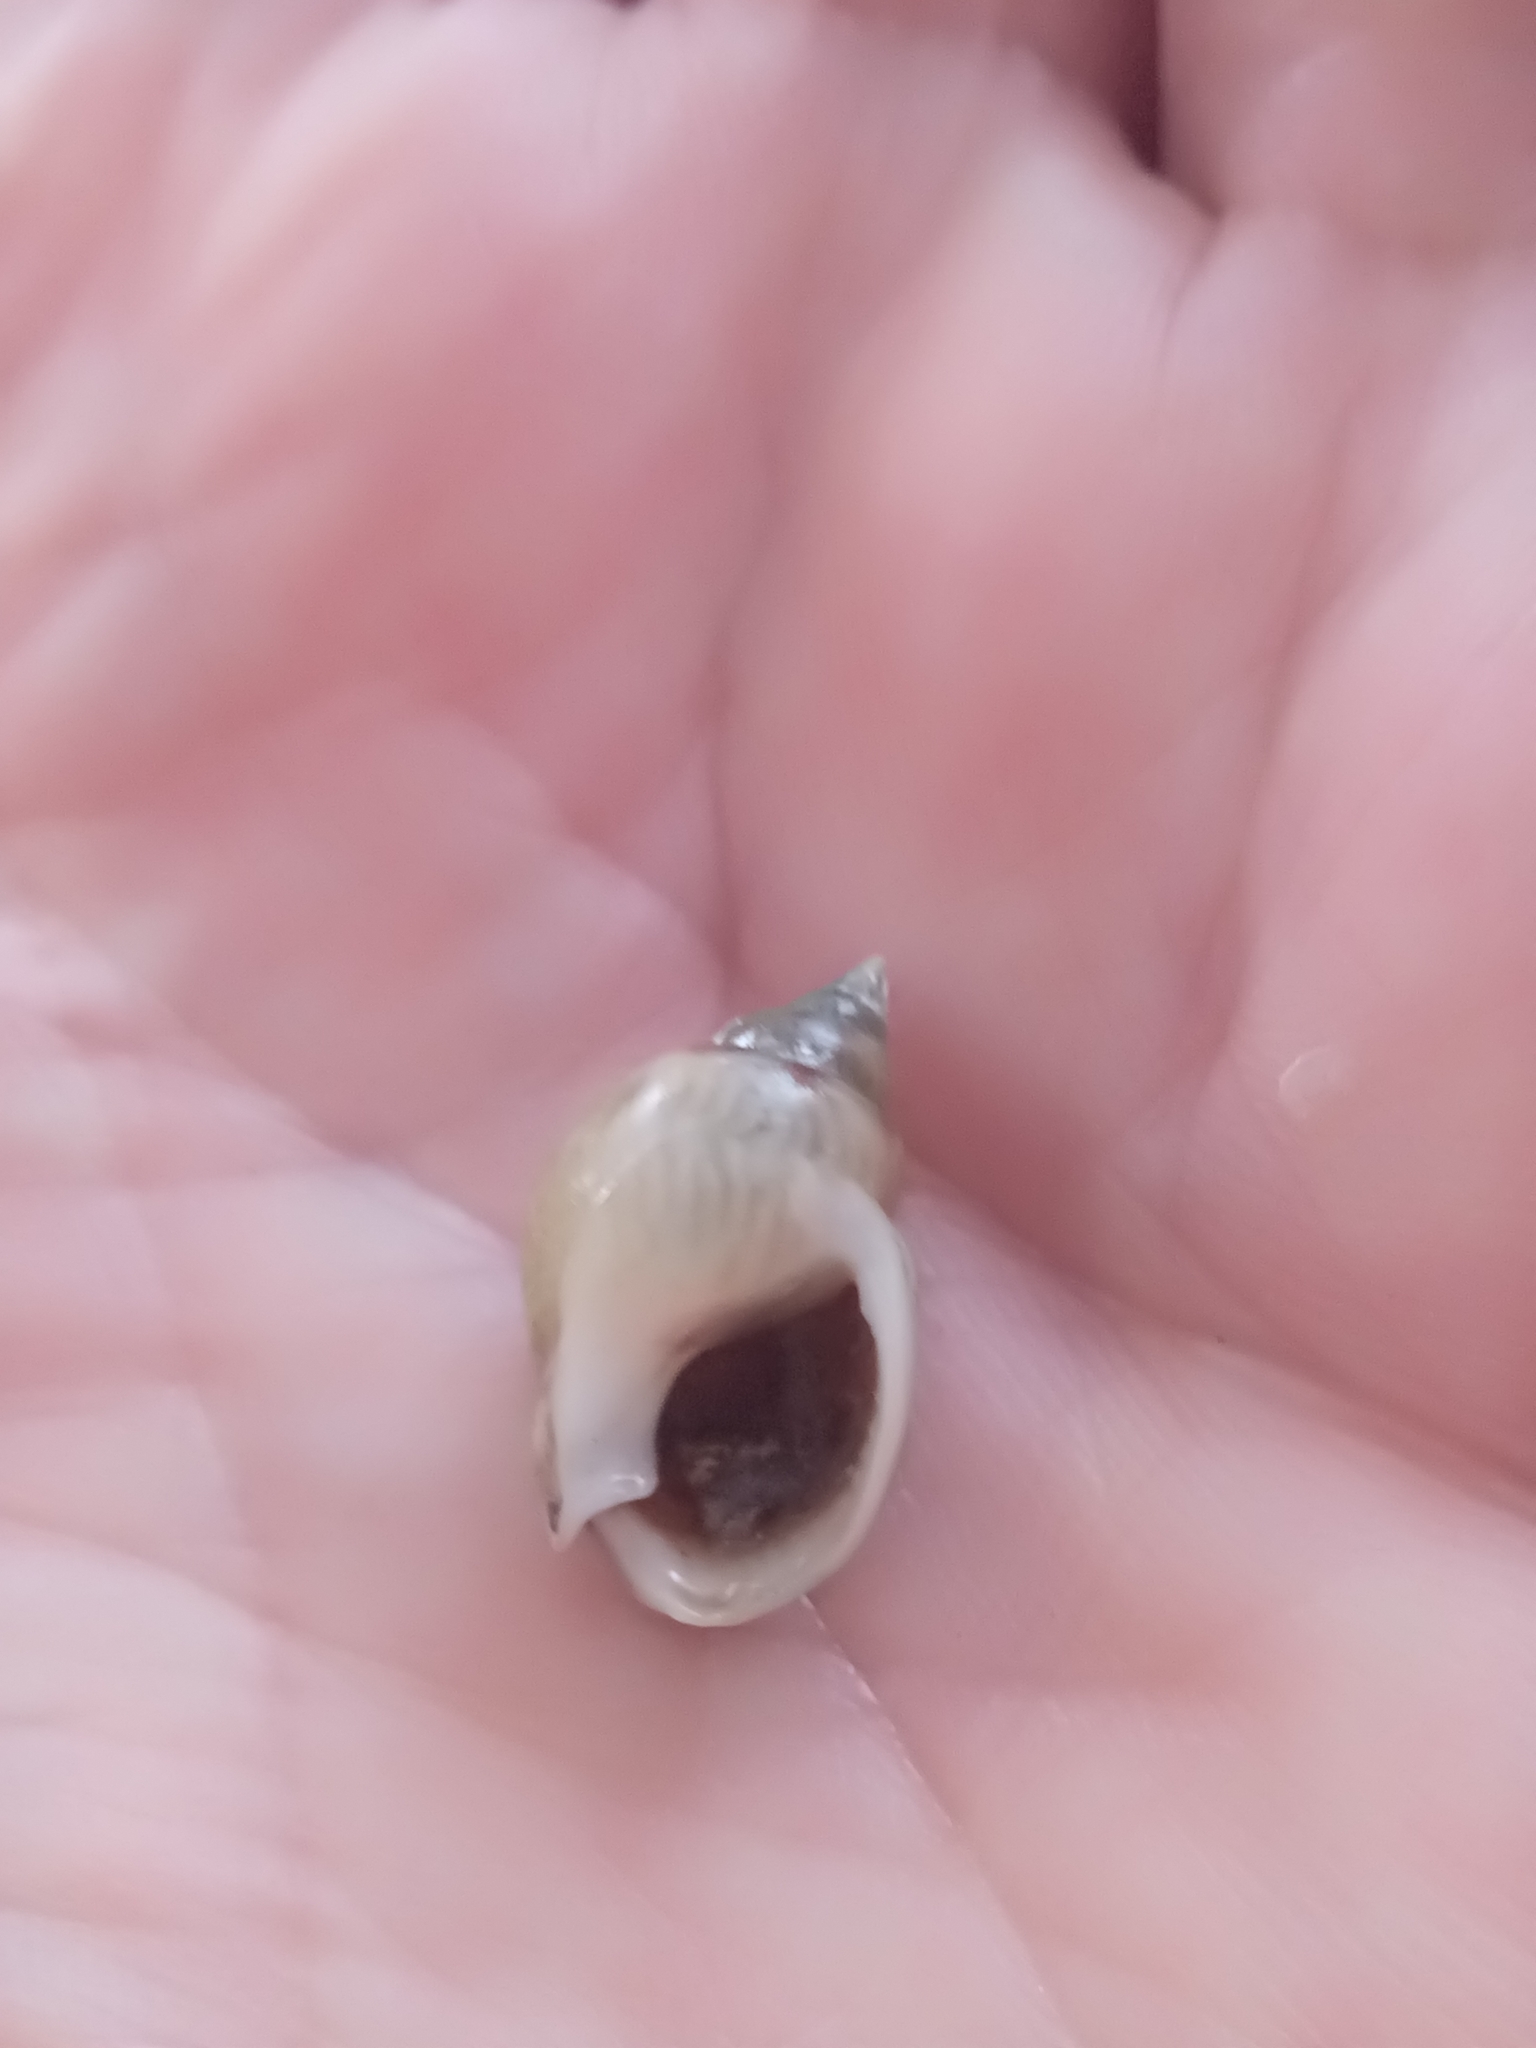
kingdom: Animalia
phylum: Mollusca
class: Gastropoda
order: Neogastropoda
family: Nassariidae
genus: Tritia
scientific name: Tritia mutabilis
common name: Mutable nassa
